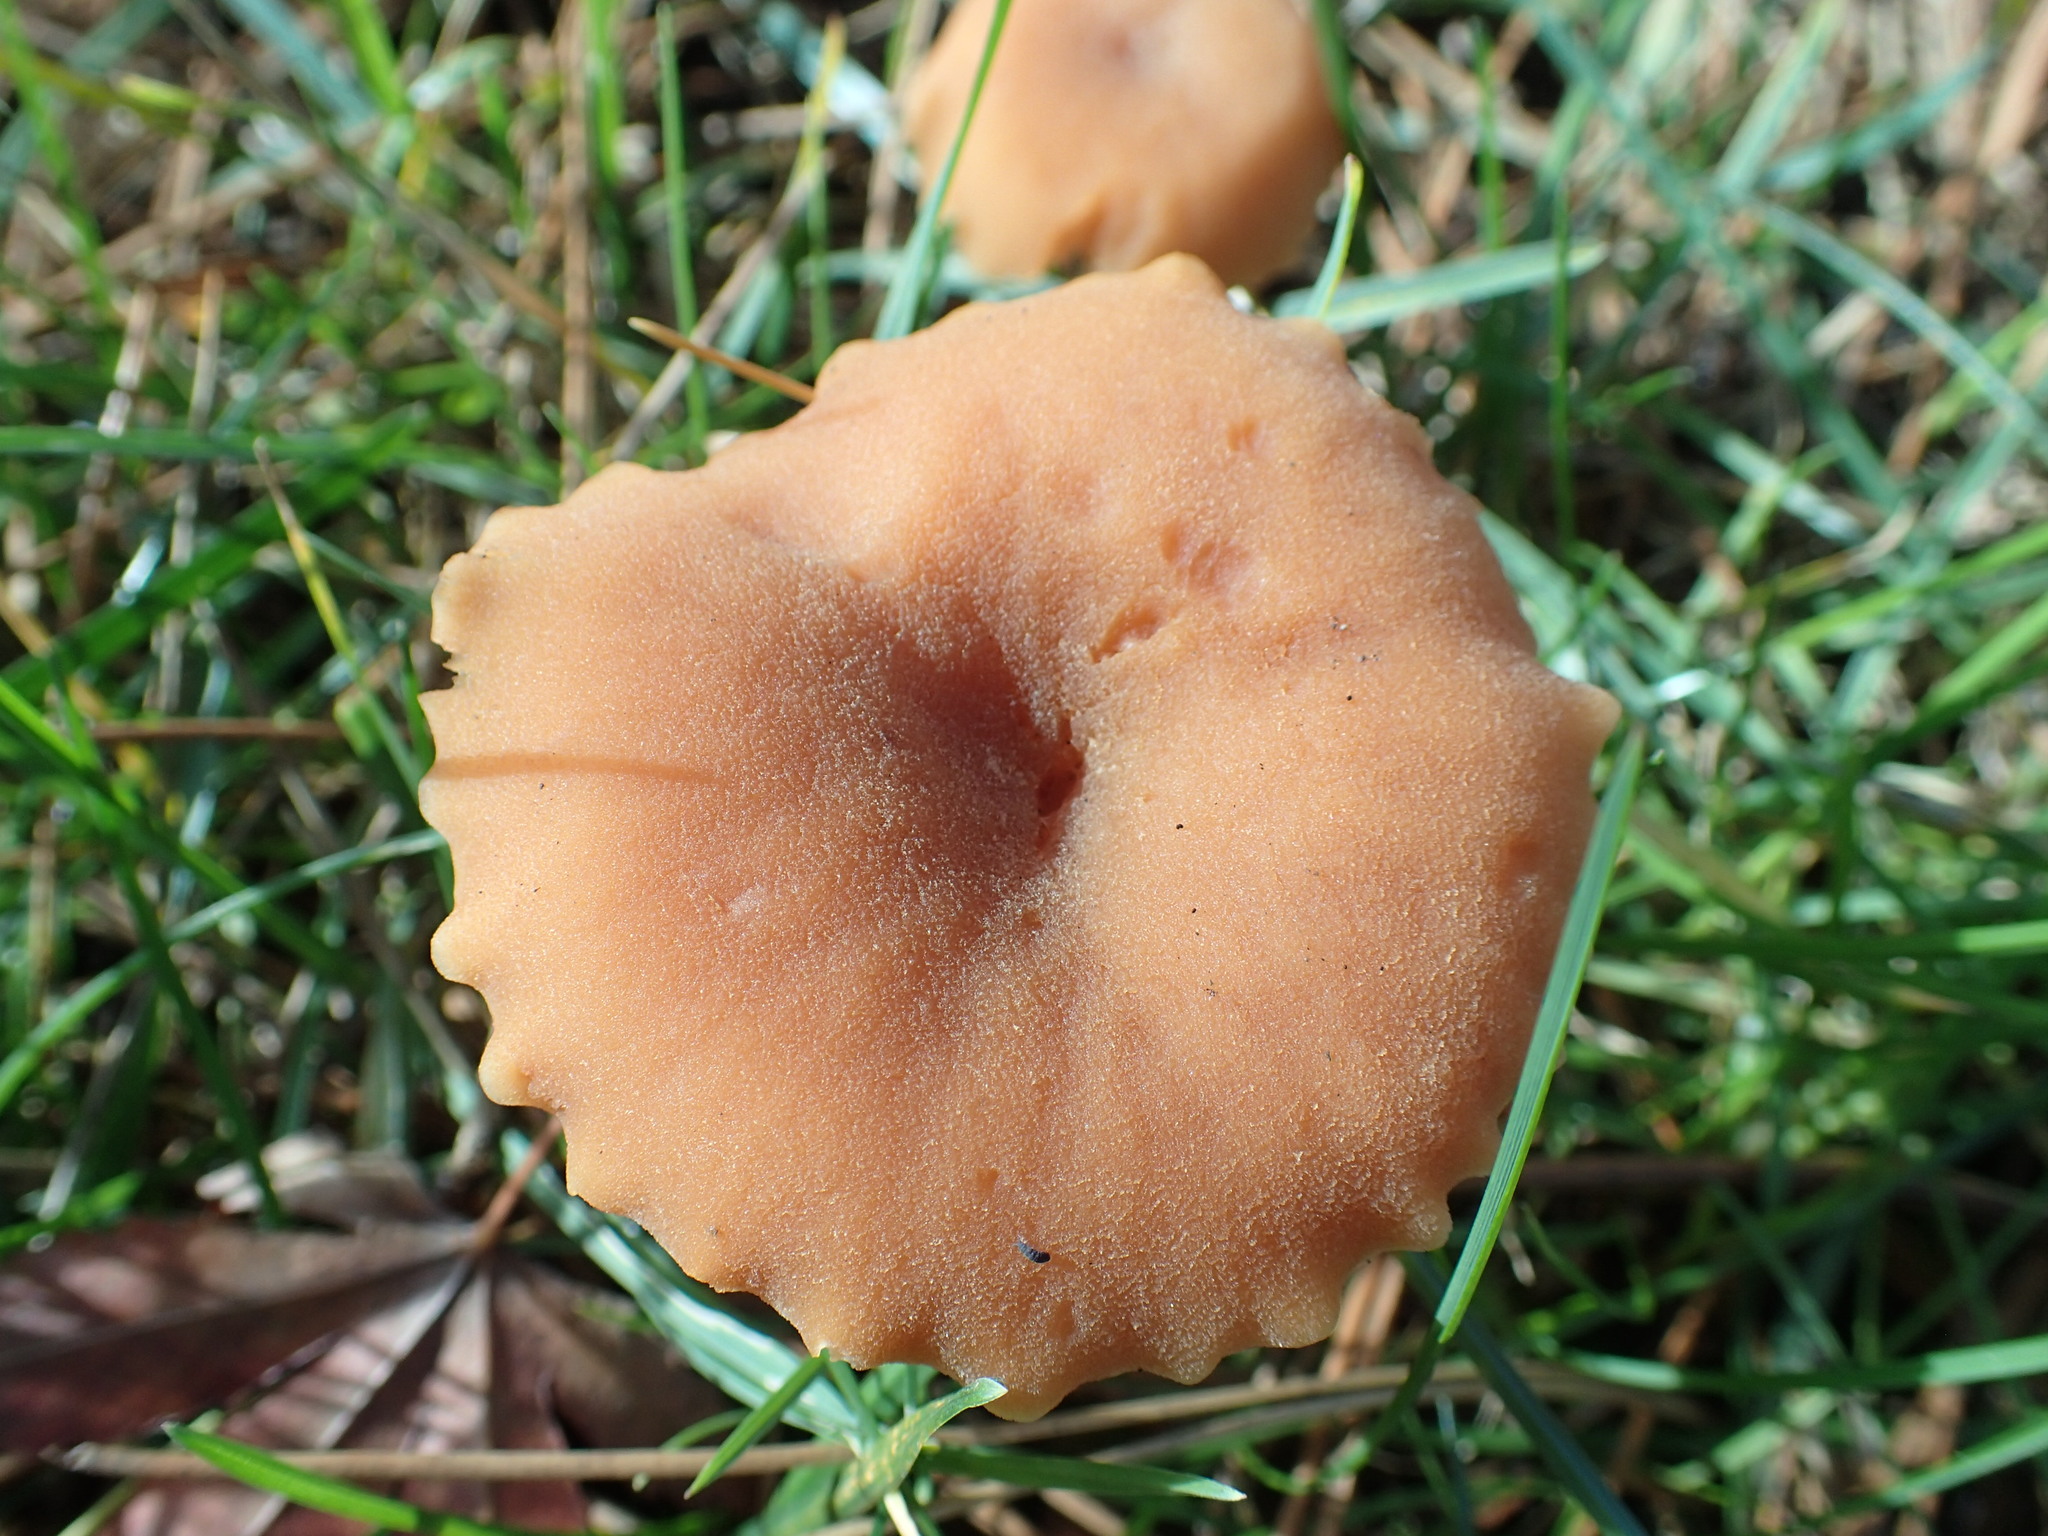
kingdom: Fungi
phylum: Basidiomycota
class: Agaricomycetes
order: Agaricales
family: Hydnangiaceae
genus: Laccaria
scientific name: Laccaria laccata
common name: Deceiver
